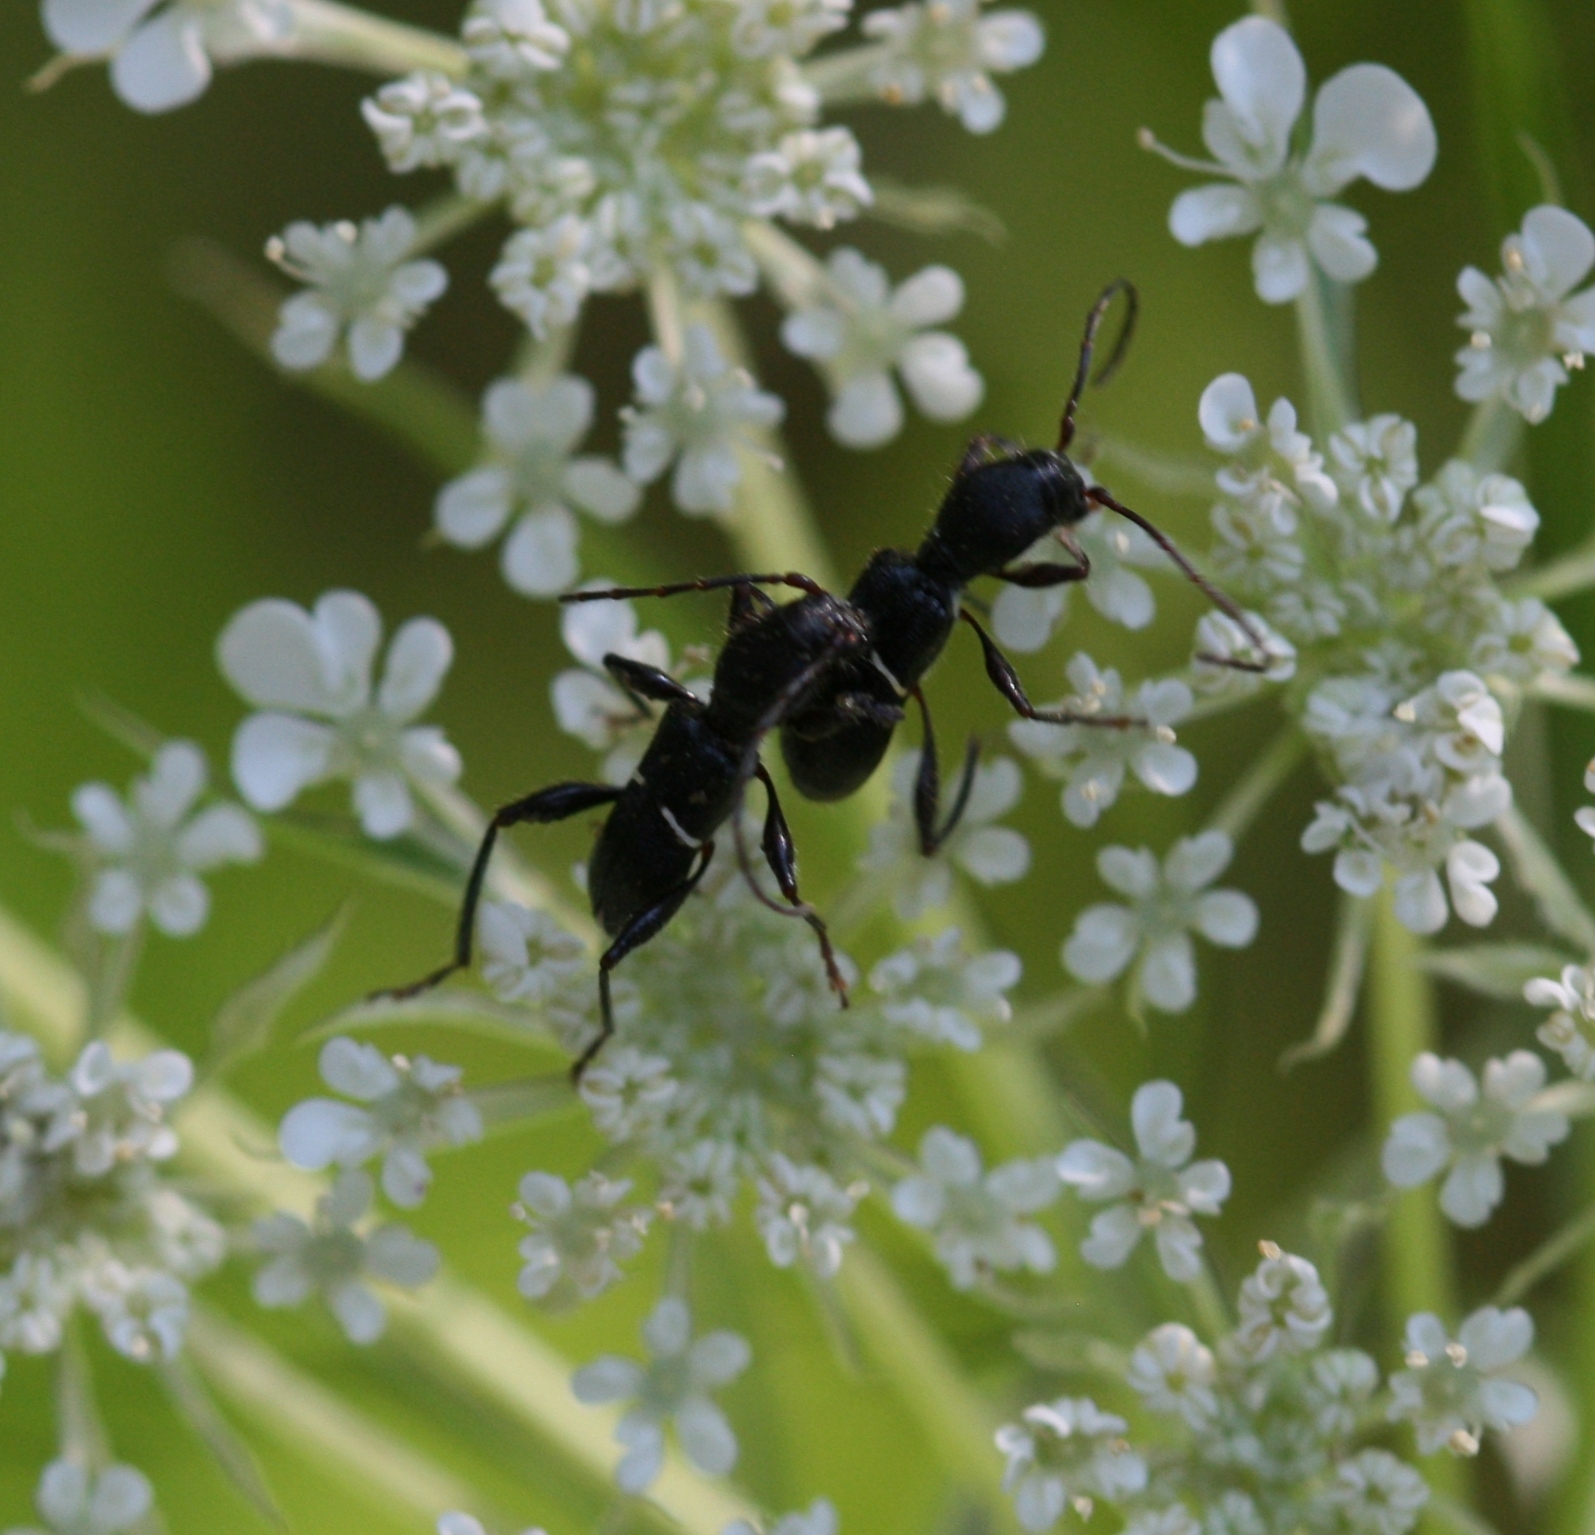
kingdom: Animalia
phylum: Arthropoda
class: Insecta
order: Coleoptera
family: Cerambycidae
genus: Euderces
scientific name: Euderces picipes
